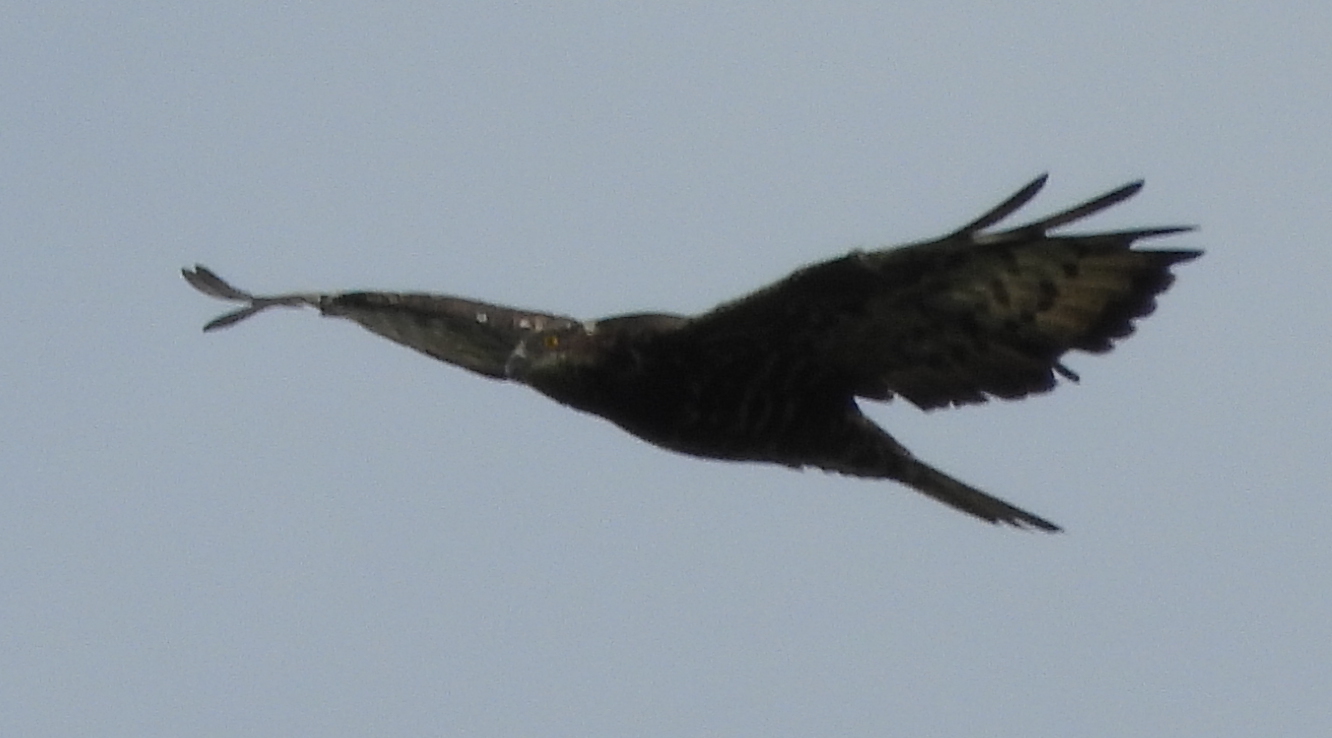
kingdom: Animalia
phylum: Chordata
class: Aves
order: Accipitriformes
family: Accipitridae
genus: Pernis
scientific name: Pernis apivorus
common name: European honey buzzard
